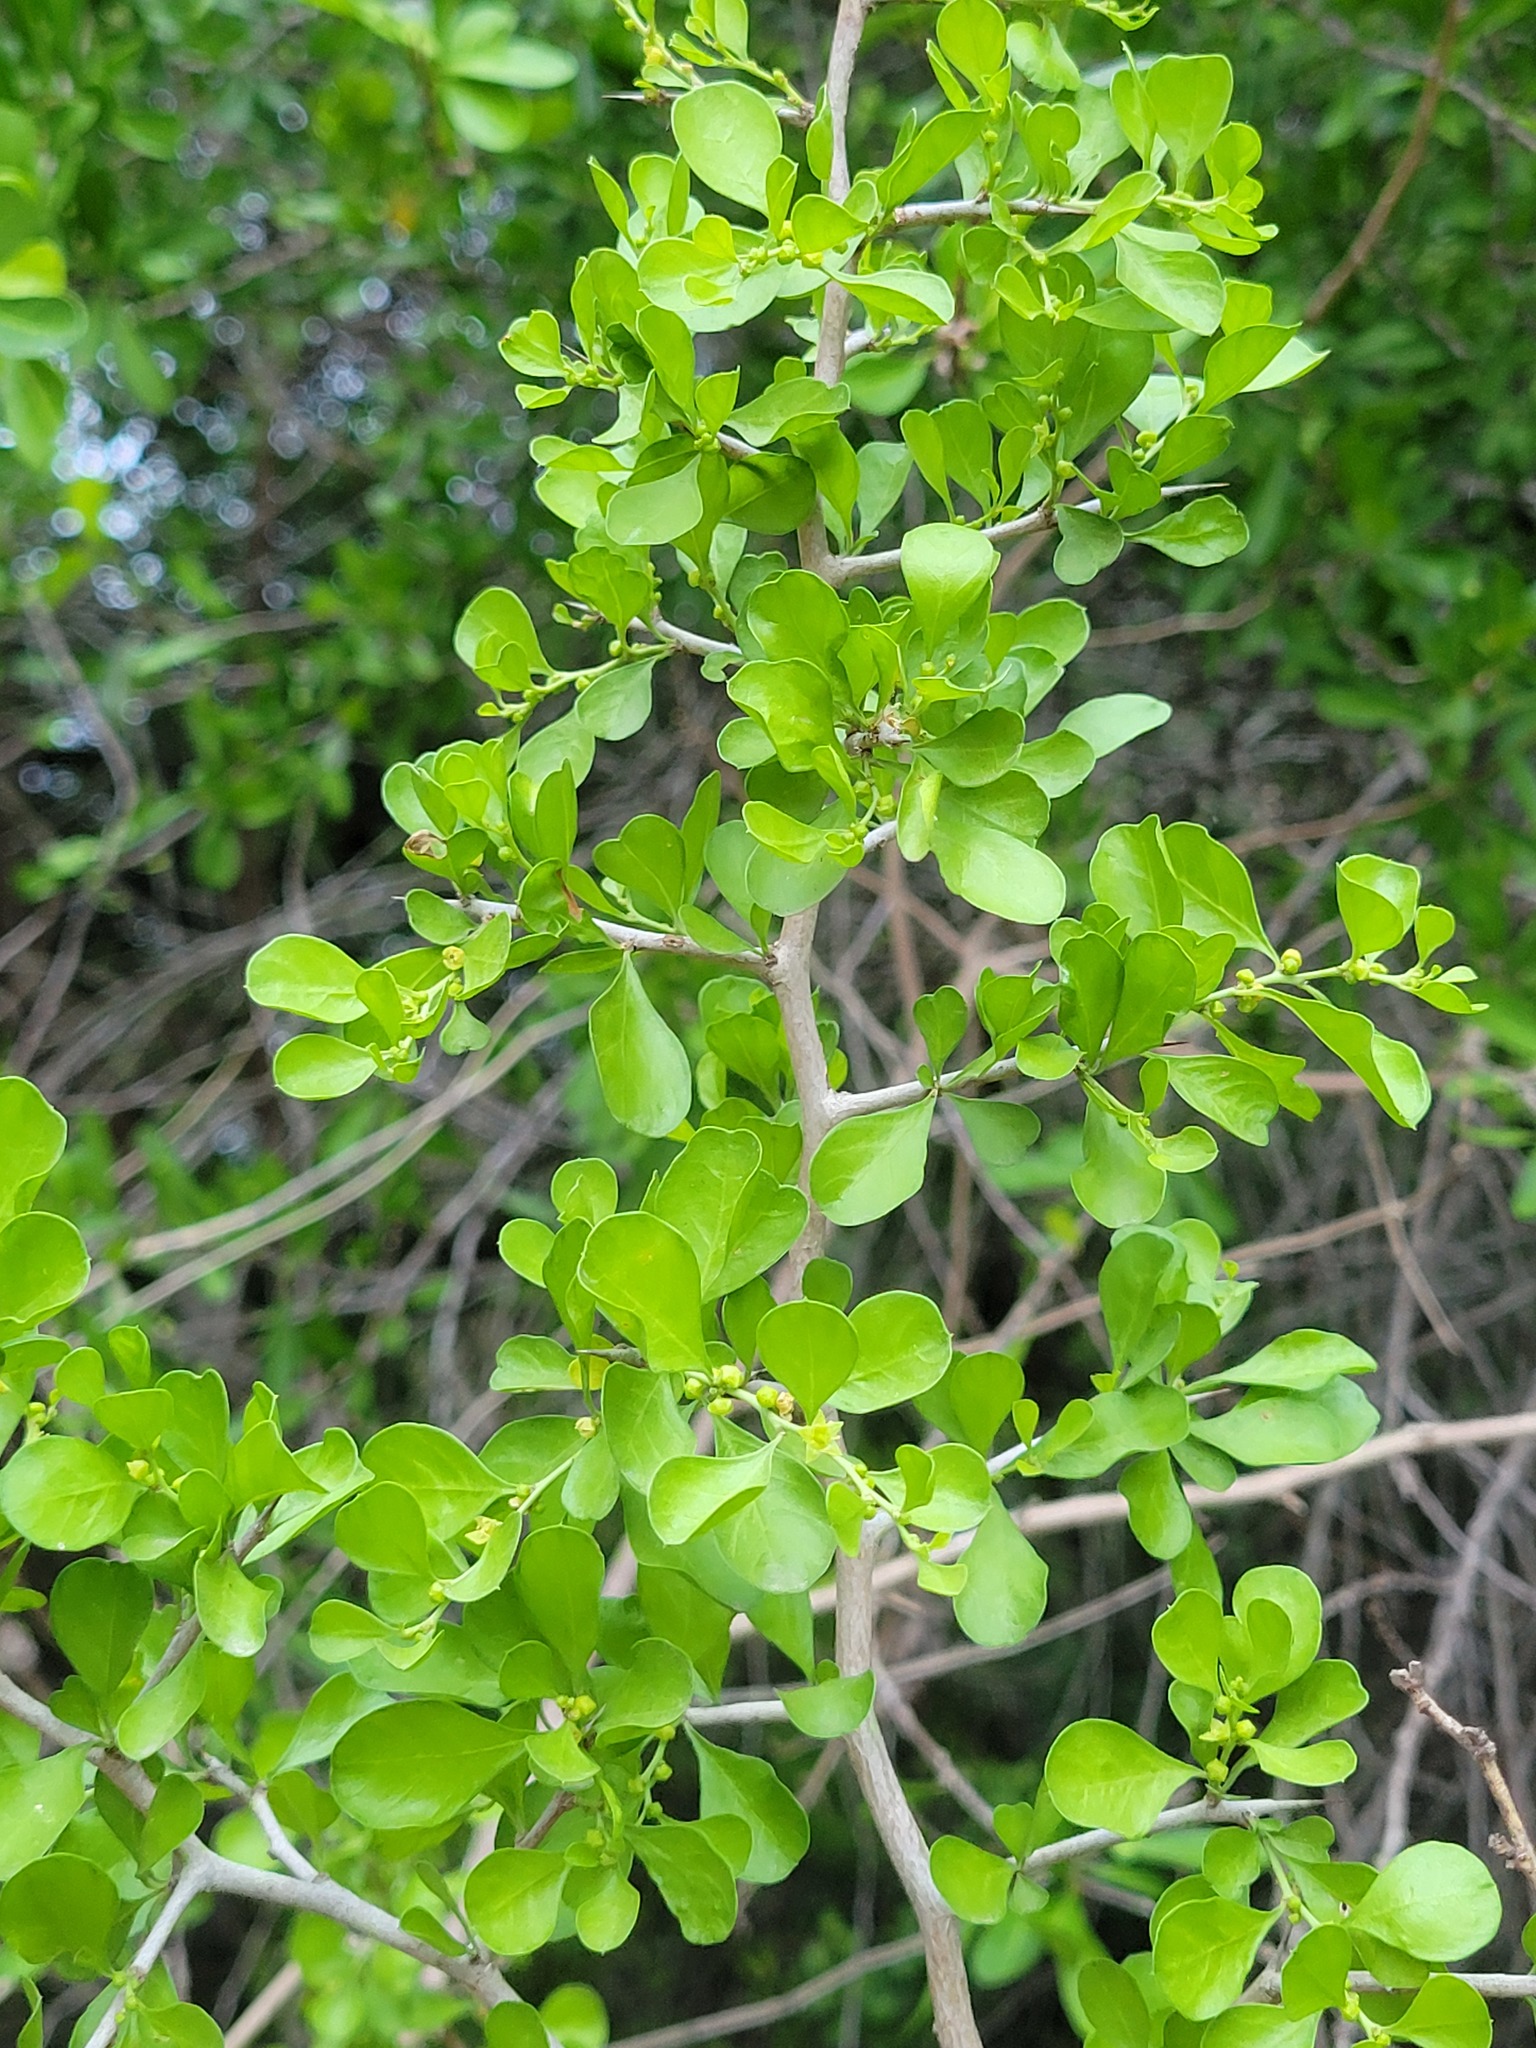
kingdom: Plantae
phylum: Tracheophyta
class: Magnoliopsida
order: Rosales
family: Rhamnaceae
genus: Condalia
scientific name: Condalia hookeri
